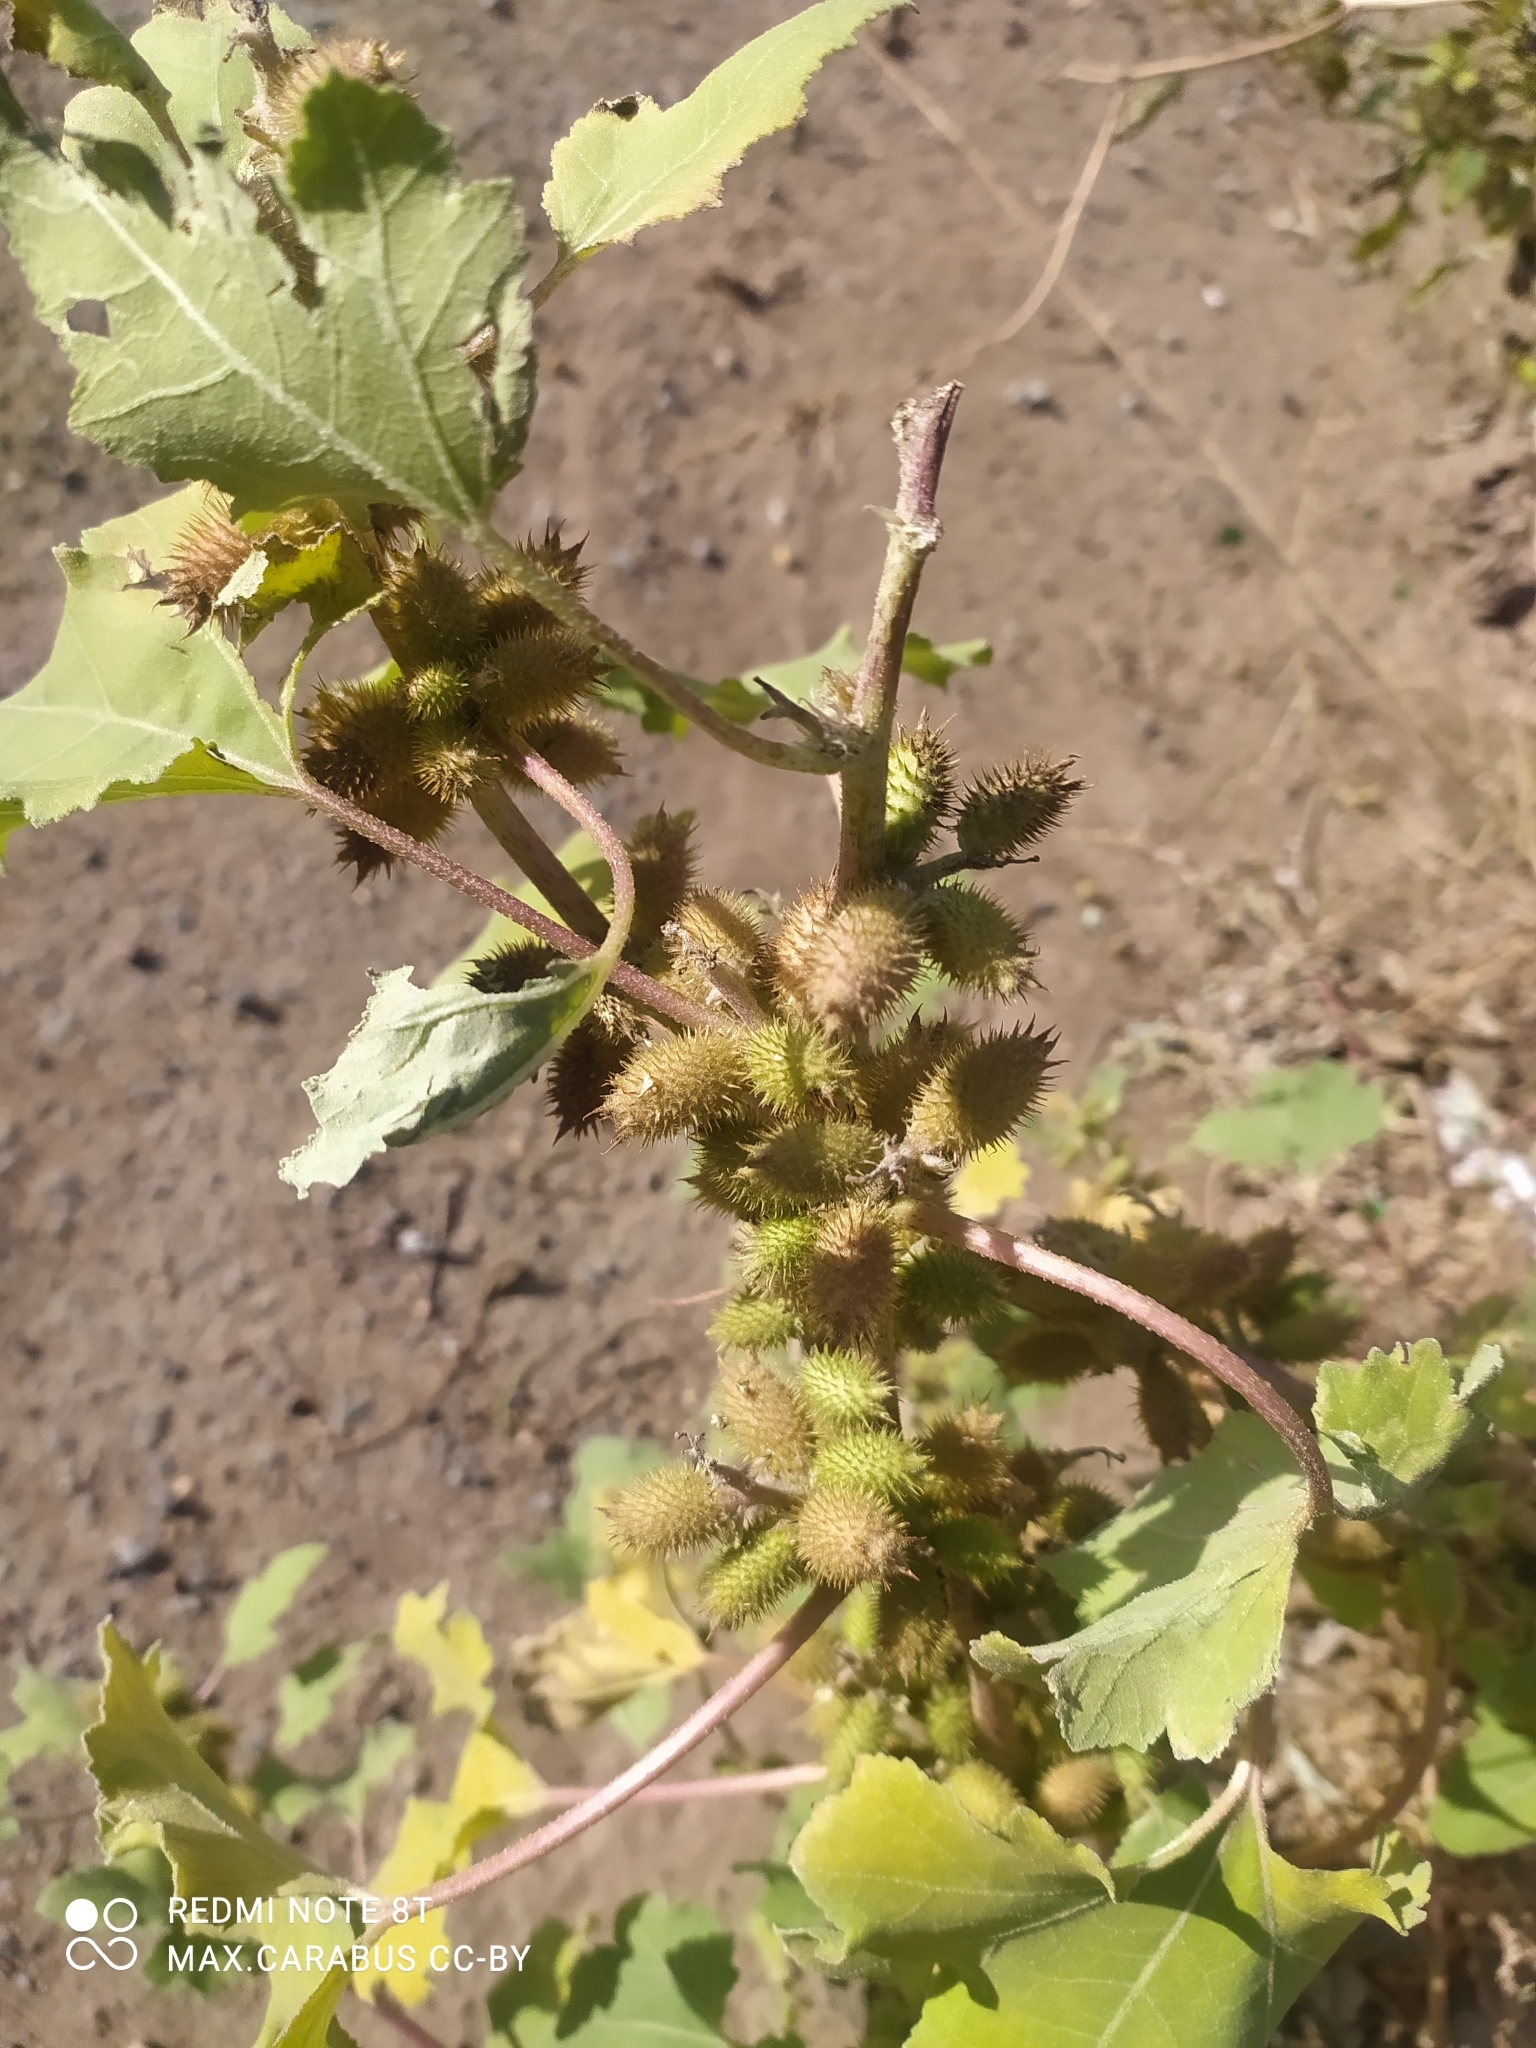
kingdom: Plantae
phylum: Tracheophyta
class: Magnoliopsida
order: Asterales
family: Asteraceae
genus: Xanthium
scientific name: Xanthium orientale
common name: Californian burr
